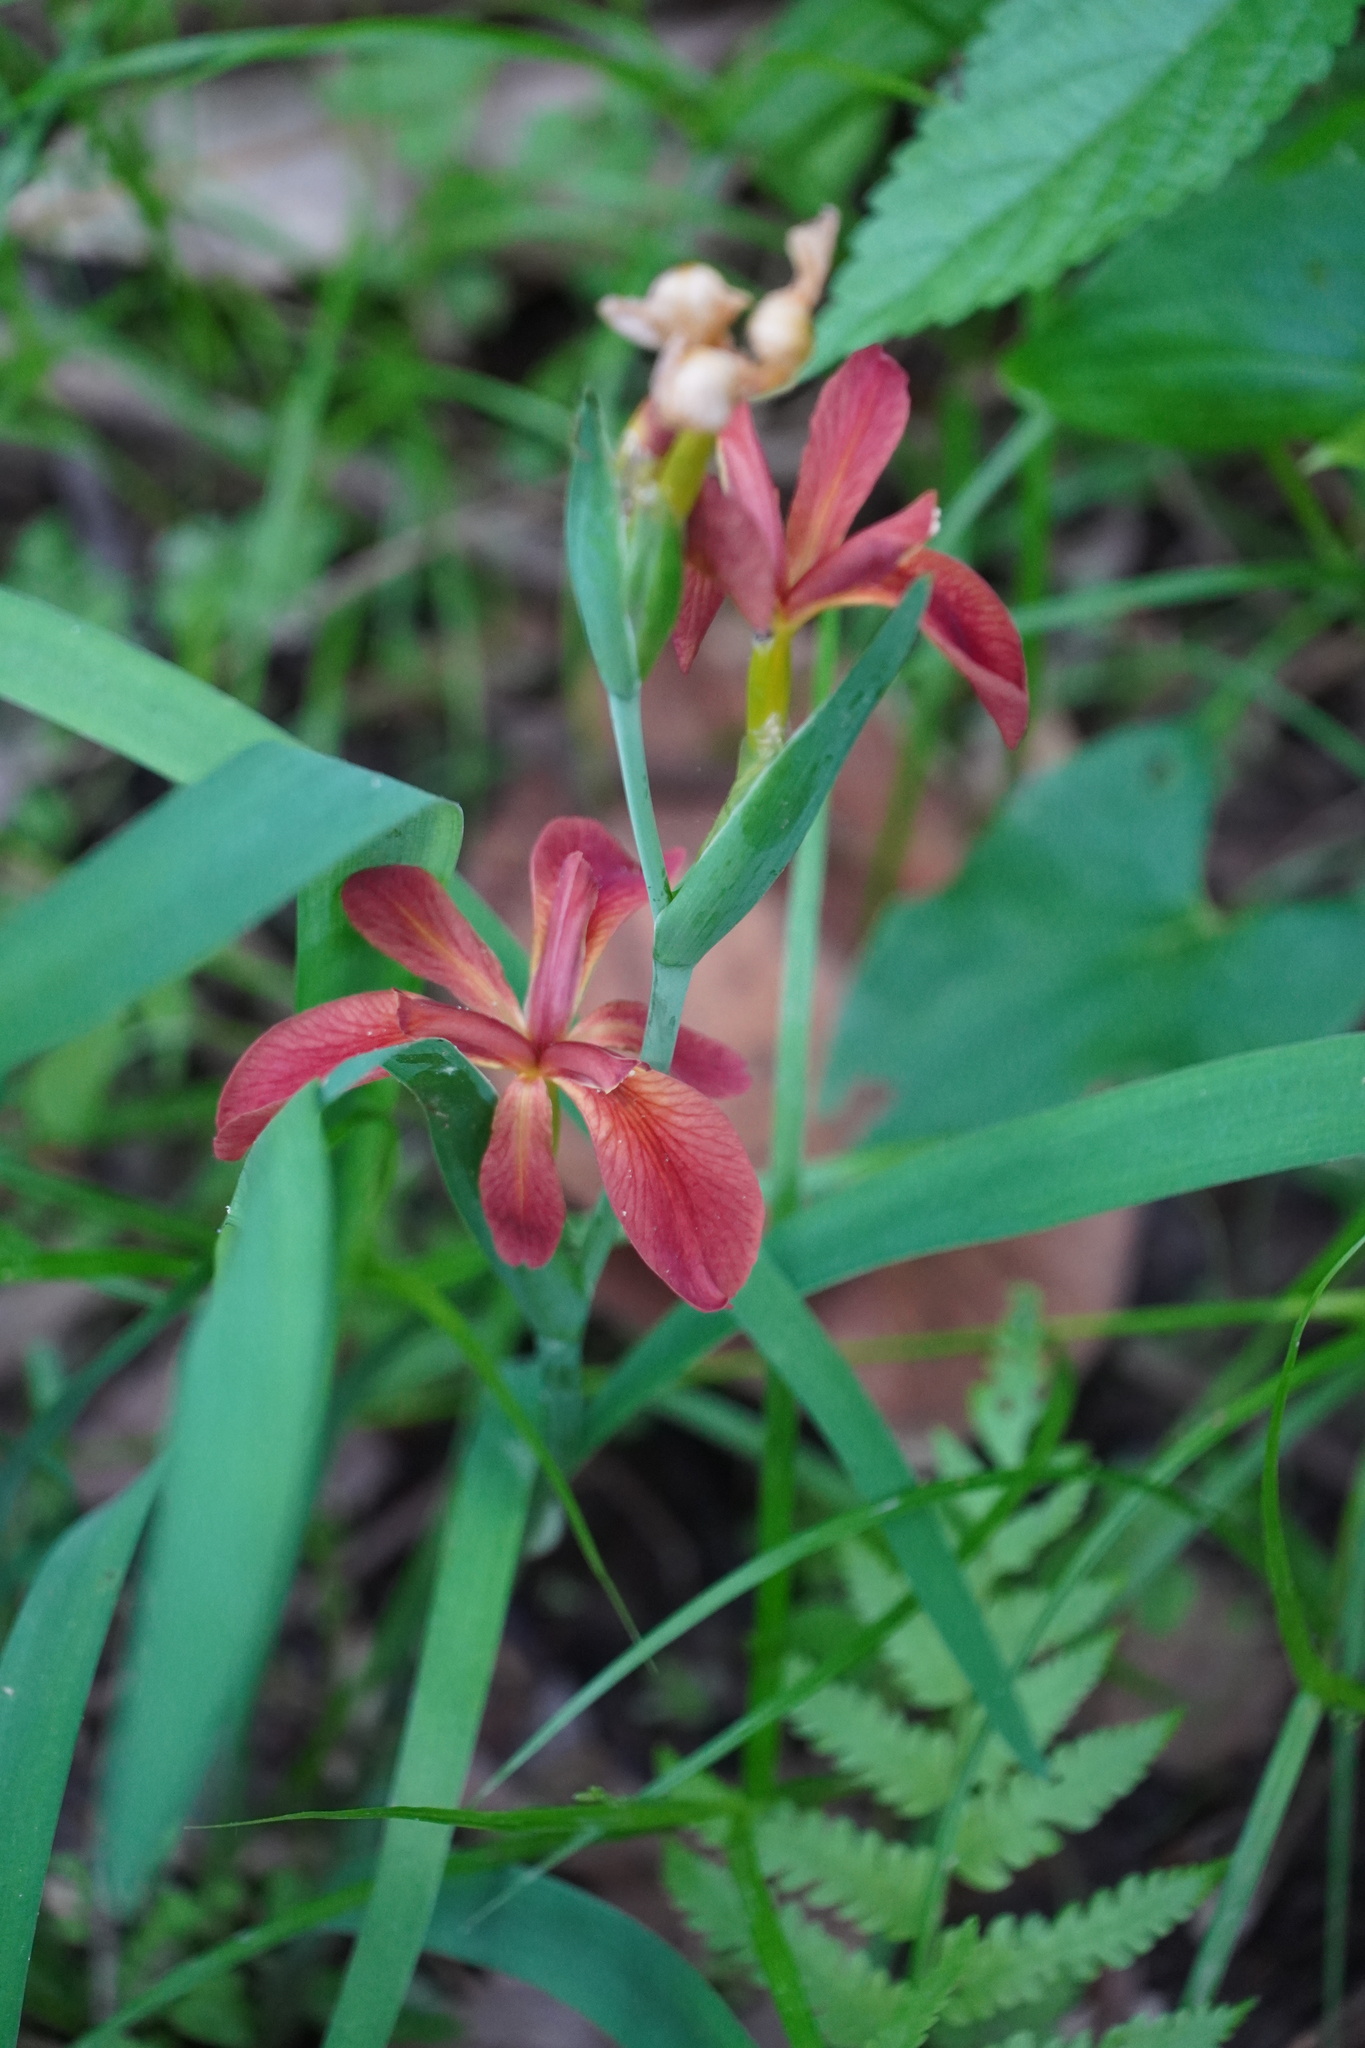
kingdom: Plantae
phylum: Tracheophyta
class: Liliopsida
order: Asparagales
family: Iridaceae
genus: Iris
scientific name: Iris fulva
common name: Copper iris
